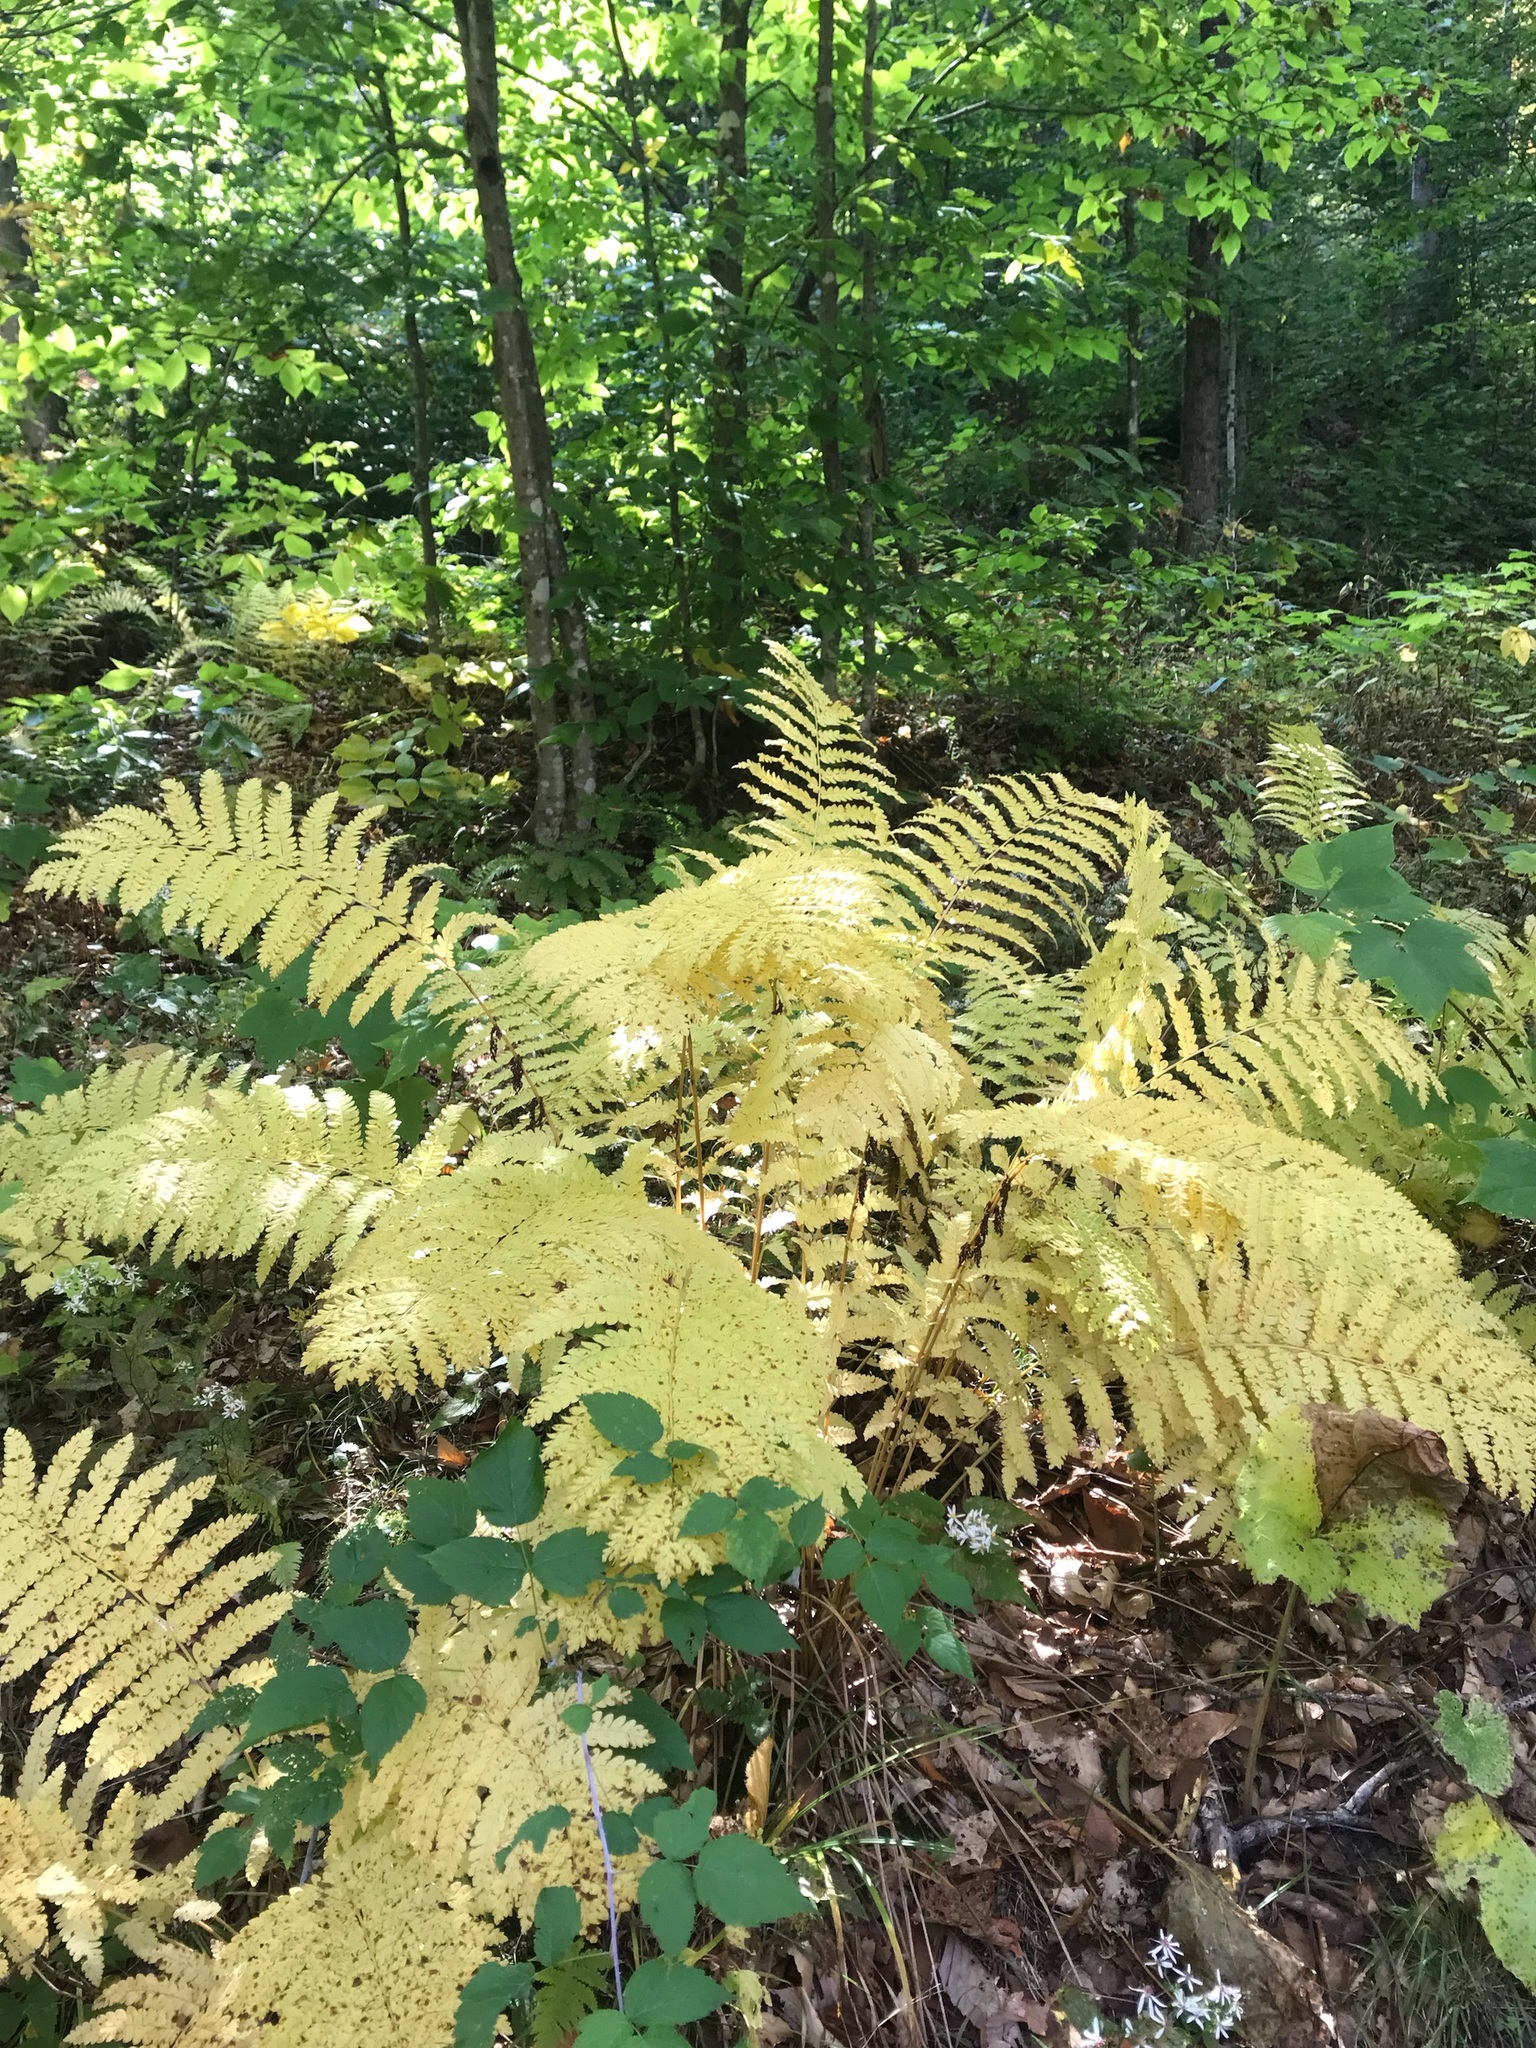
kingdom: Plantae
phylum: Tracheophyta
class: Polypodiopsida
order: Osmundales
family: Osmundaceae
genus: Claytosmunda
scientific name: Claytosmunda claytoniana
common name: Clayton's fern
